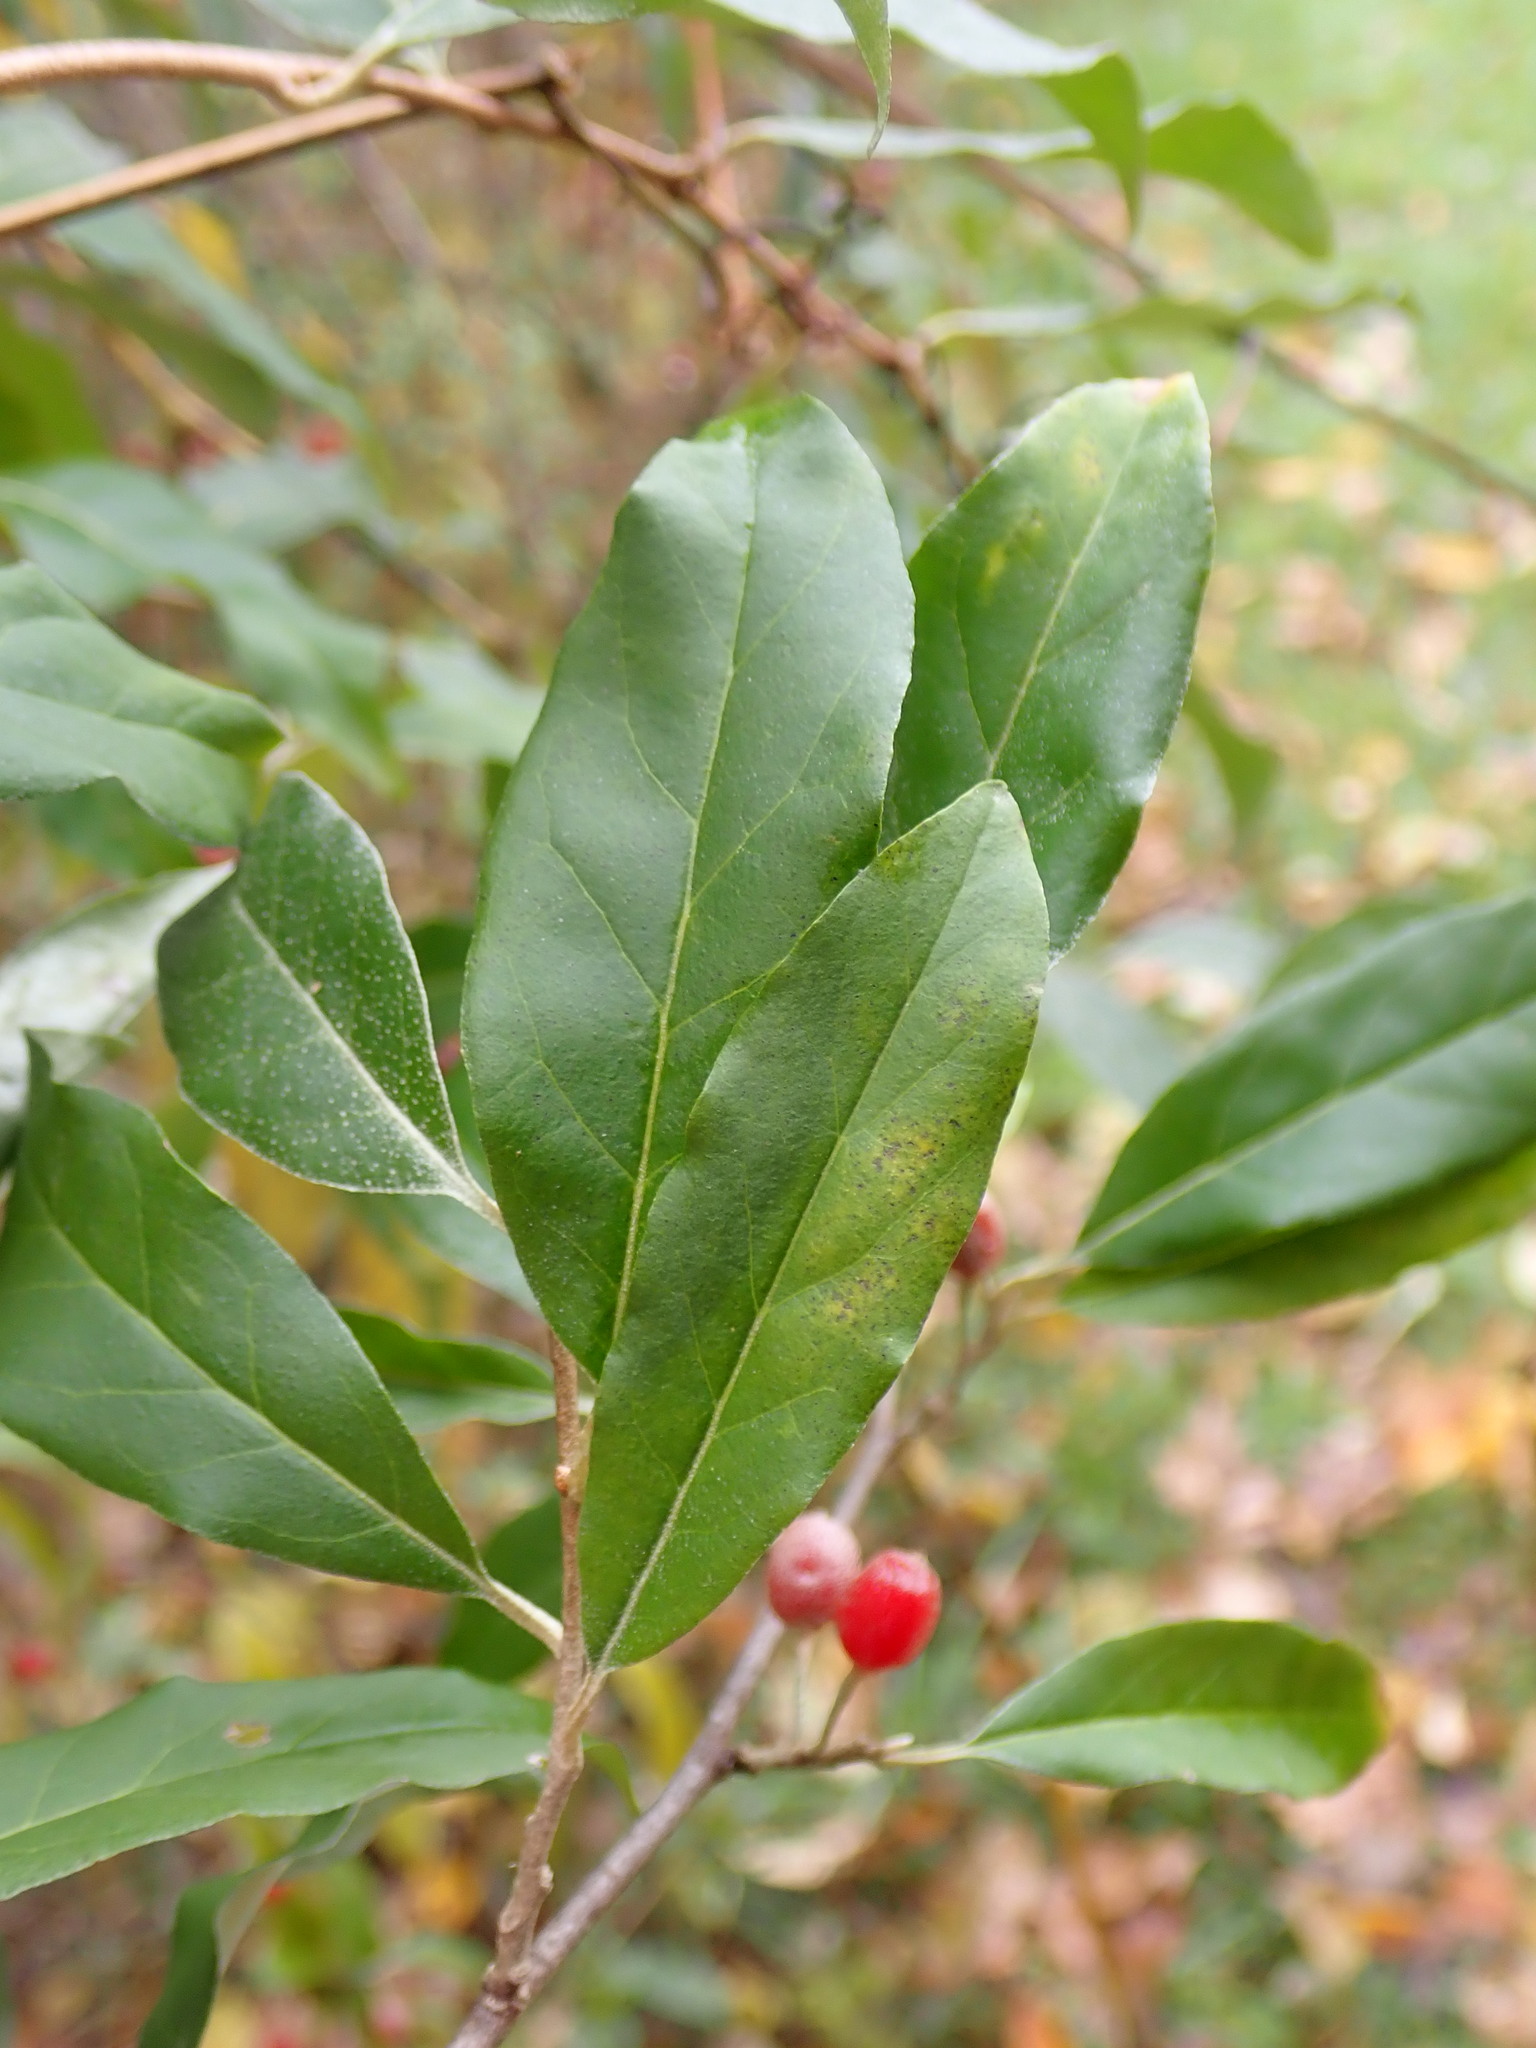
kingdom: Plantae
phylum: Tracheophyta
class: Magnoliopsida
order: Rosales
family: Elaeagnaceae
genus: Elaeagnus
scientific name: Elaeagnus umbellata
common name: Autumn olive
